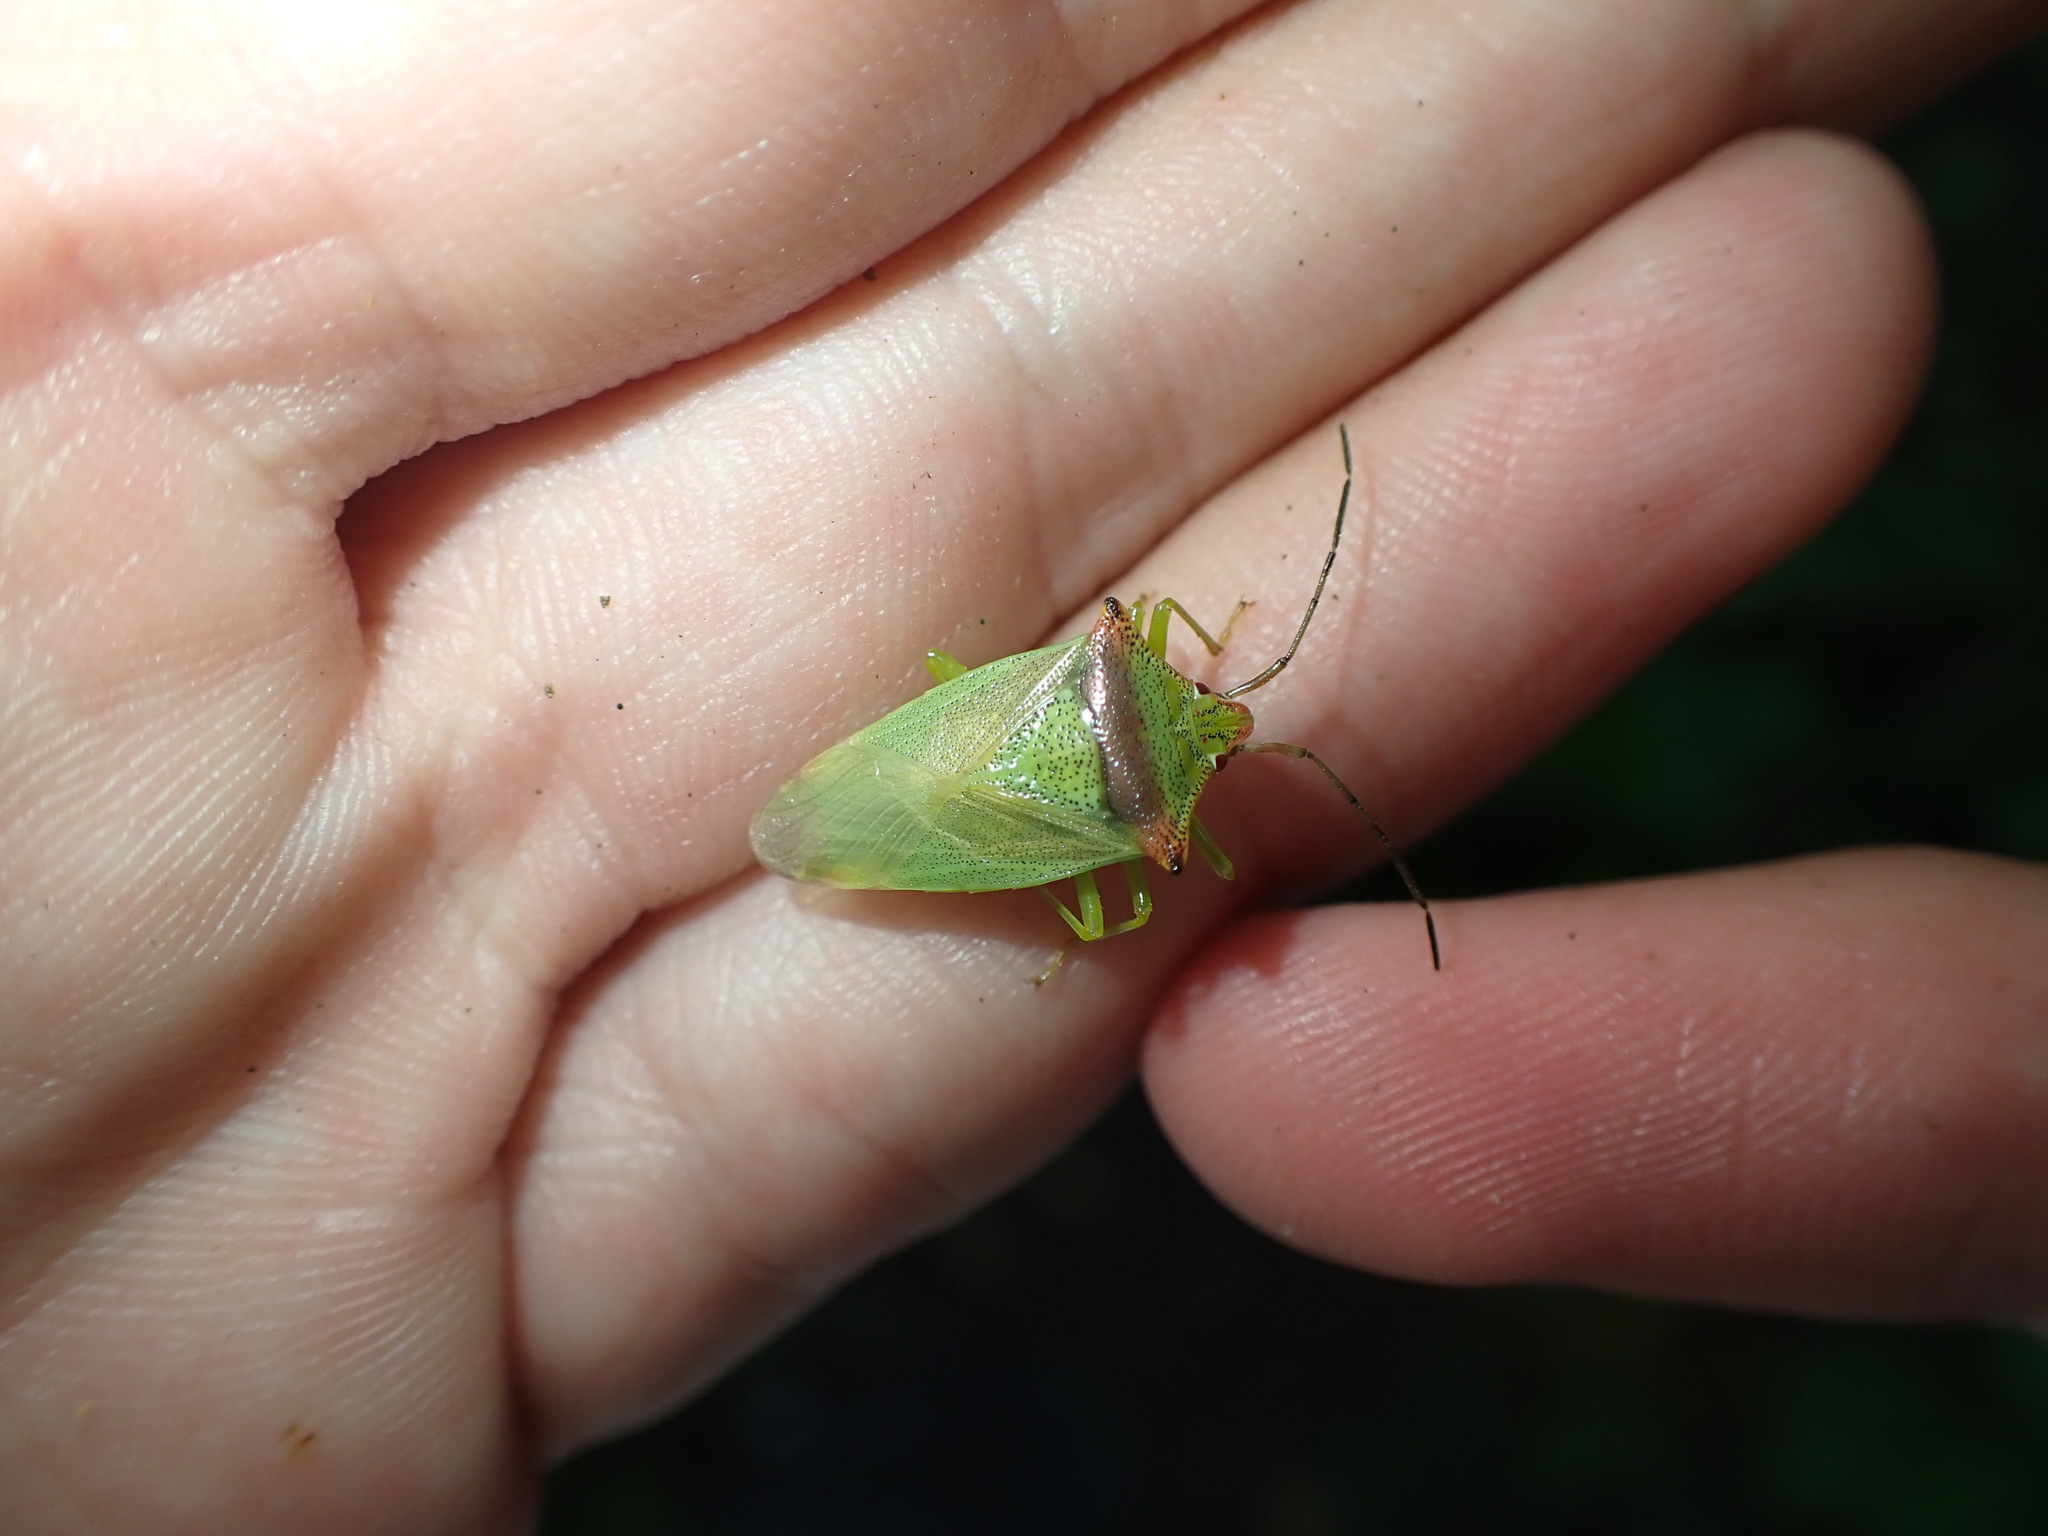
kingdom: Animalia
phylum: Arthropoda
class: Insecta
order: Hemiptera
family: Acanthosomatidae
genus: Acanthosoma
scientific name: Acanthosoma haemorrhoidale
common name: Hawthorn shieldbug
